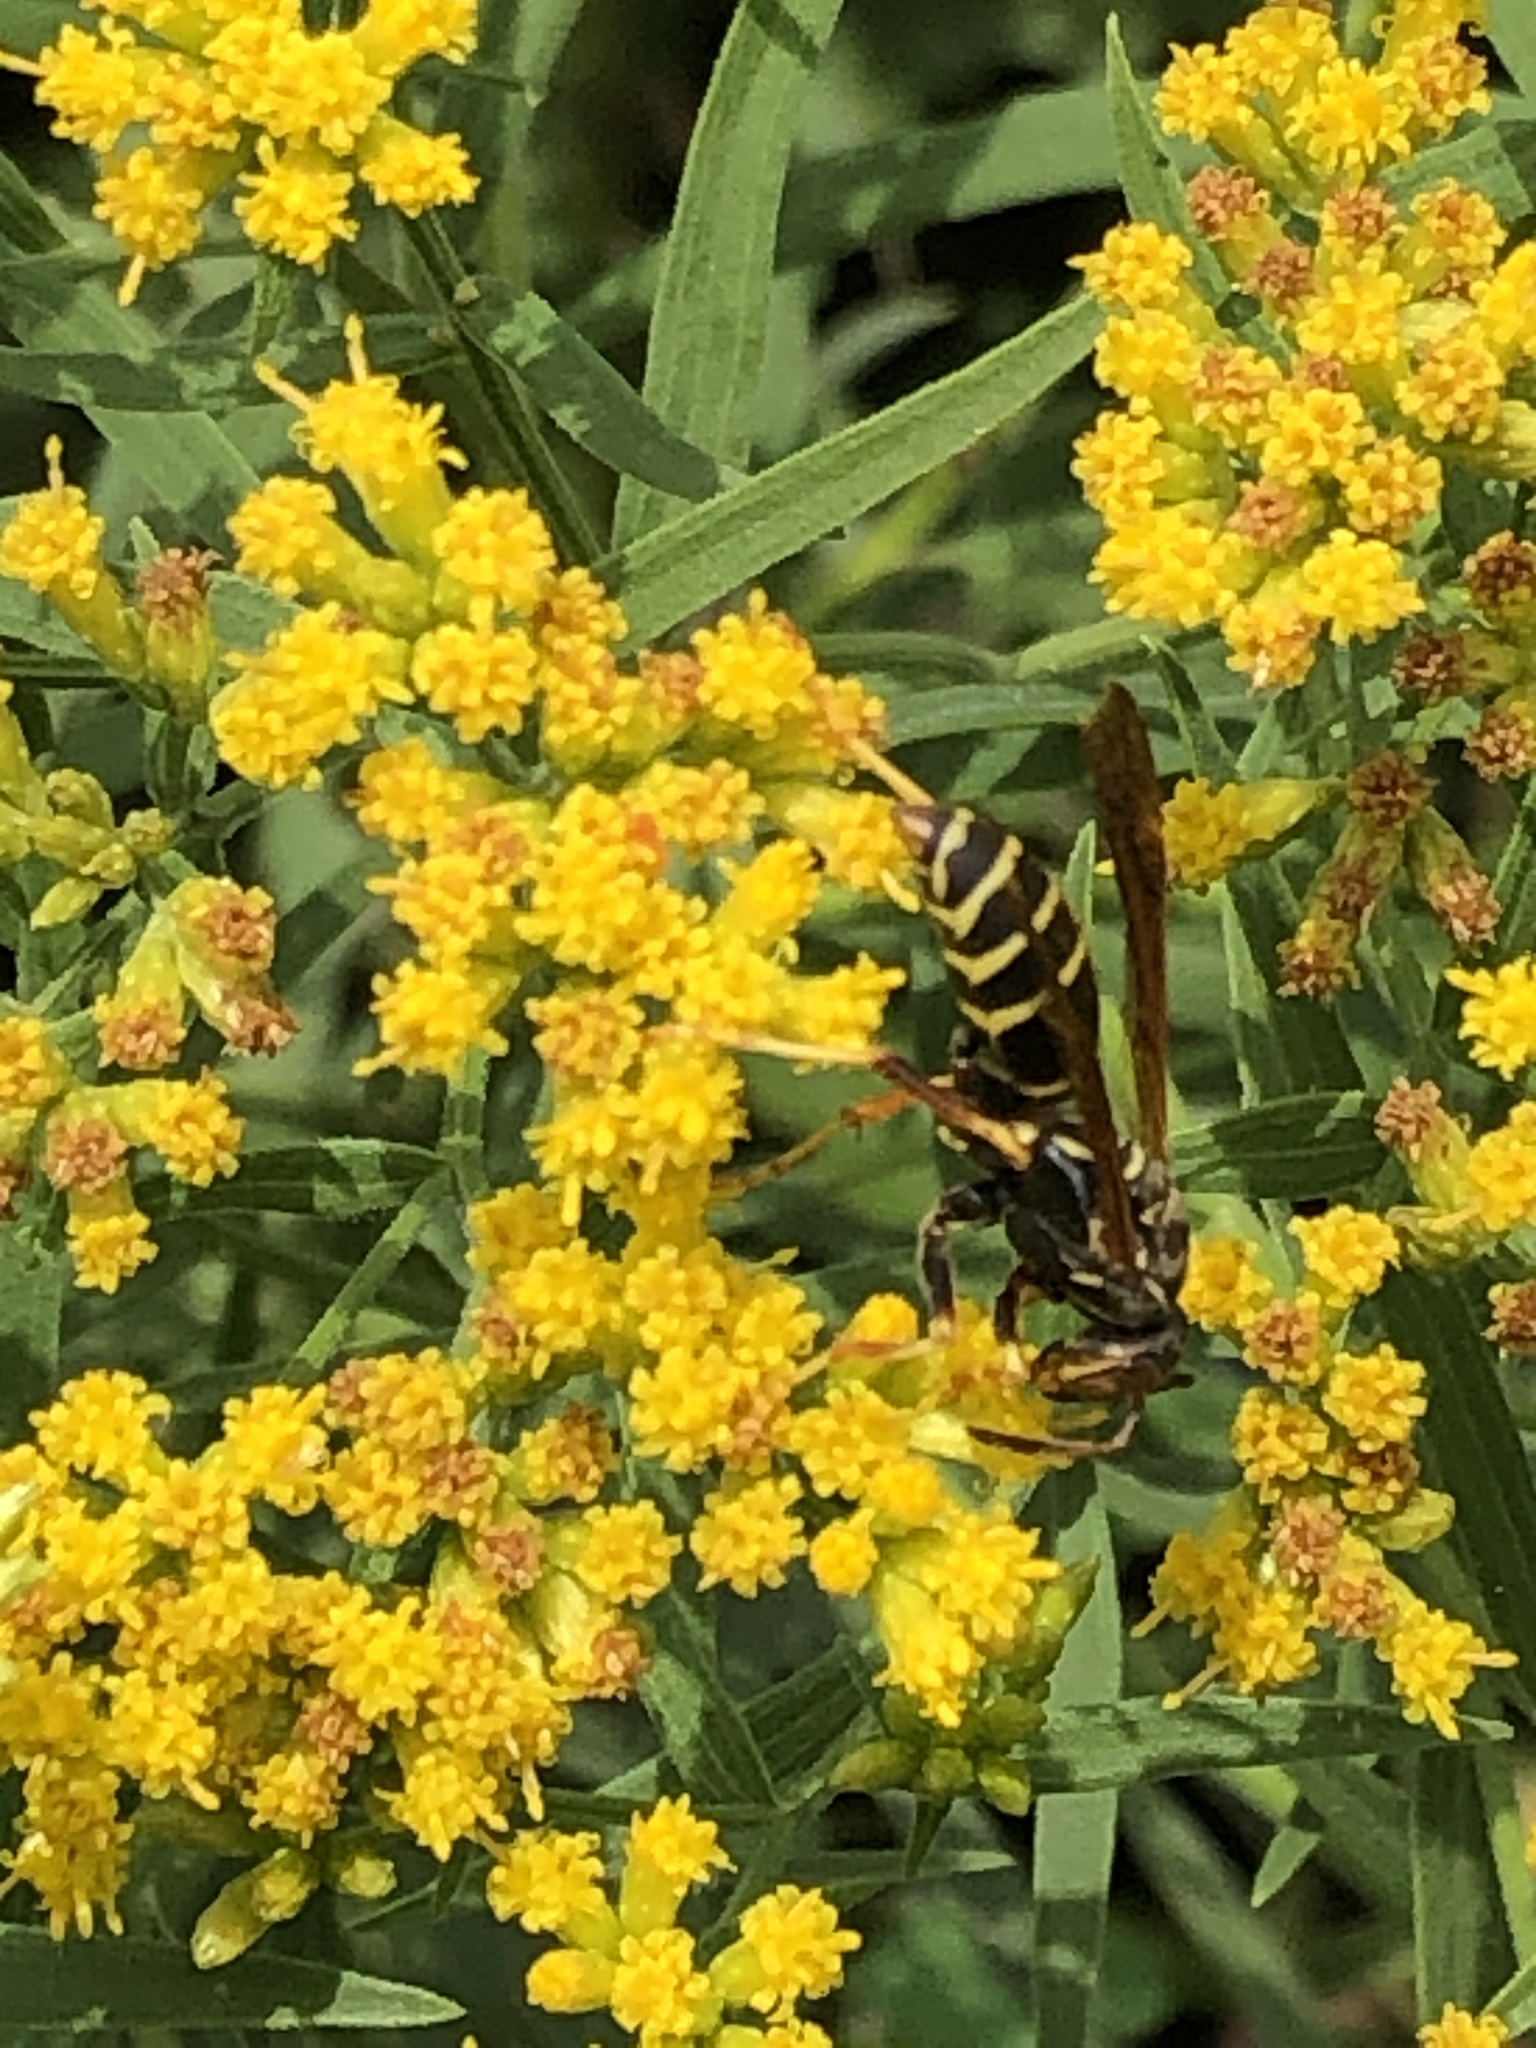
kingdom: Animalia
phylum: Arthropoda
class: Insecta
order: Hymenoptera
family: Eumenidae
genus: Polistes
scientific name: Polistes fuscatus
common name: Dark paper wasp
